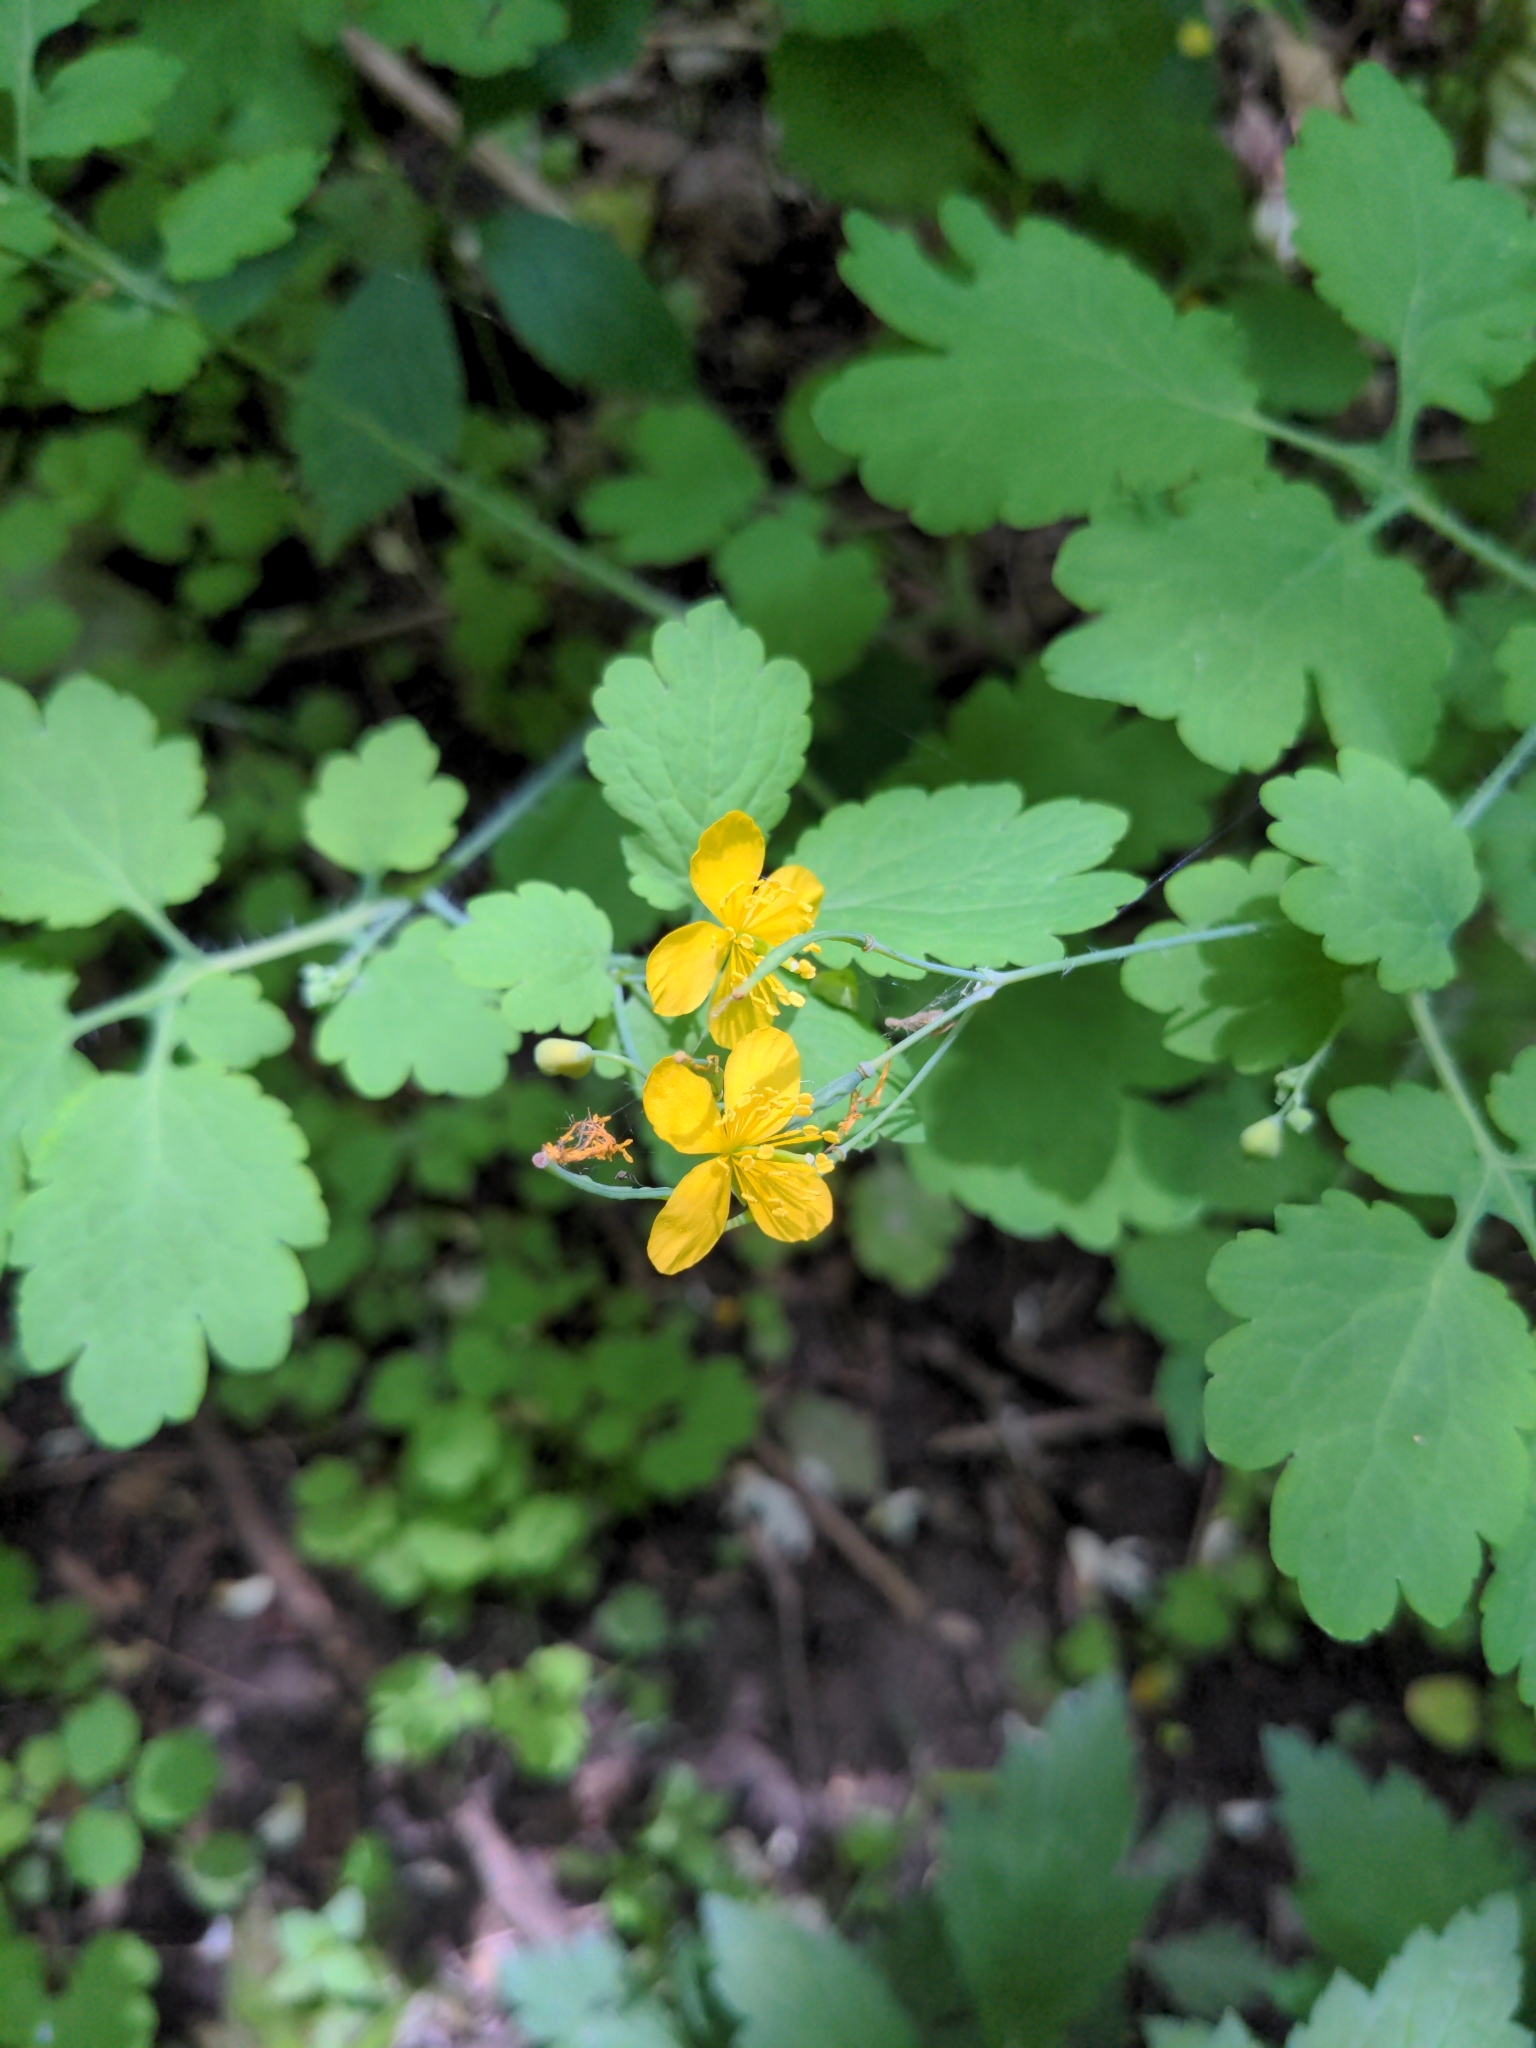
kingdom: Plantae
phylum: Tracheophyta
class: Magnoliopsida
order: Ranunculales
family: Papaveraceae
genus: Chelidonium
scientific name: Chelidonium majus
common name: Greater celandine
